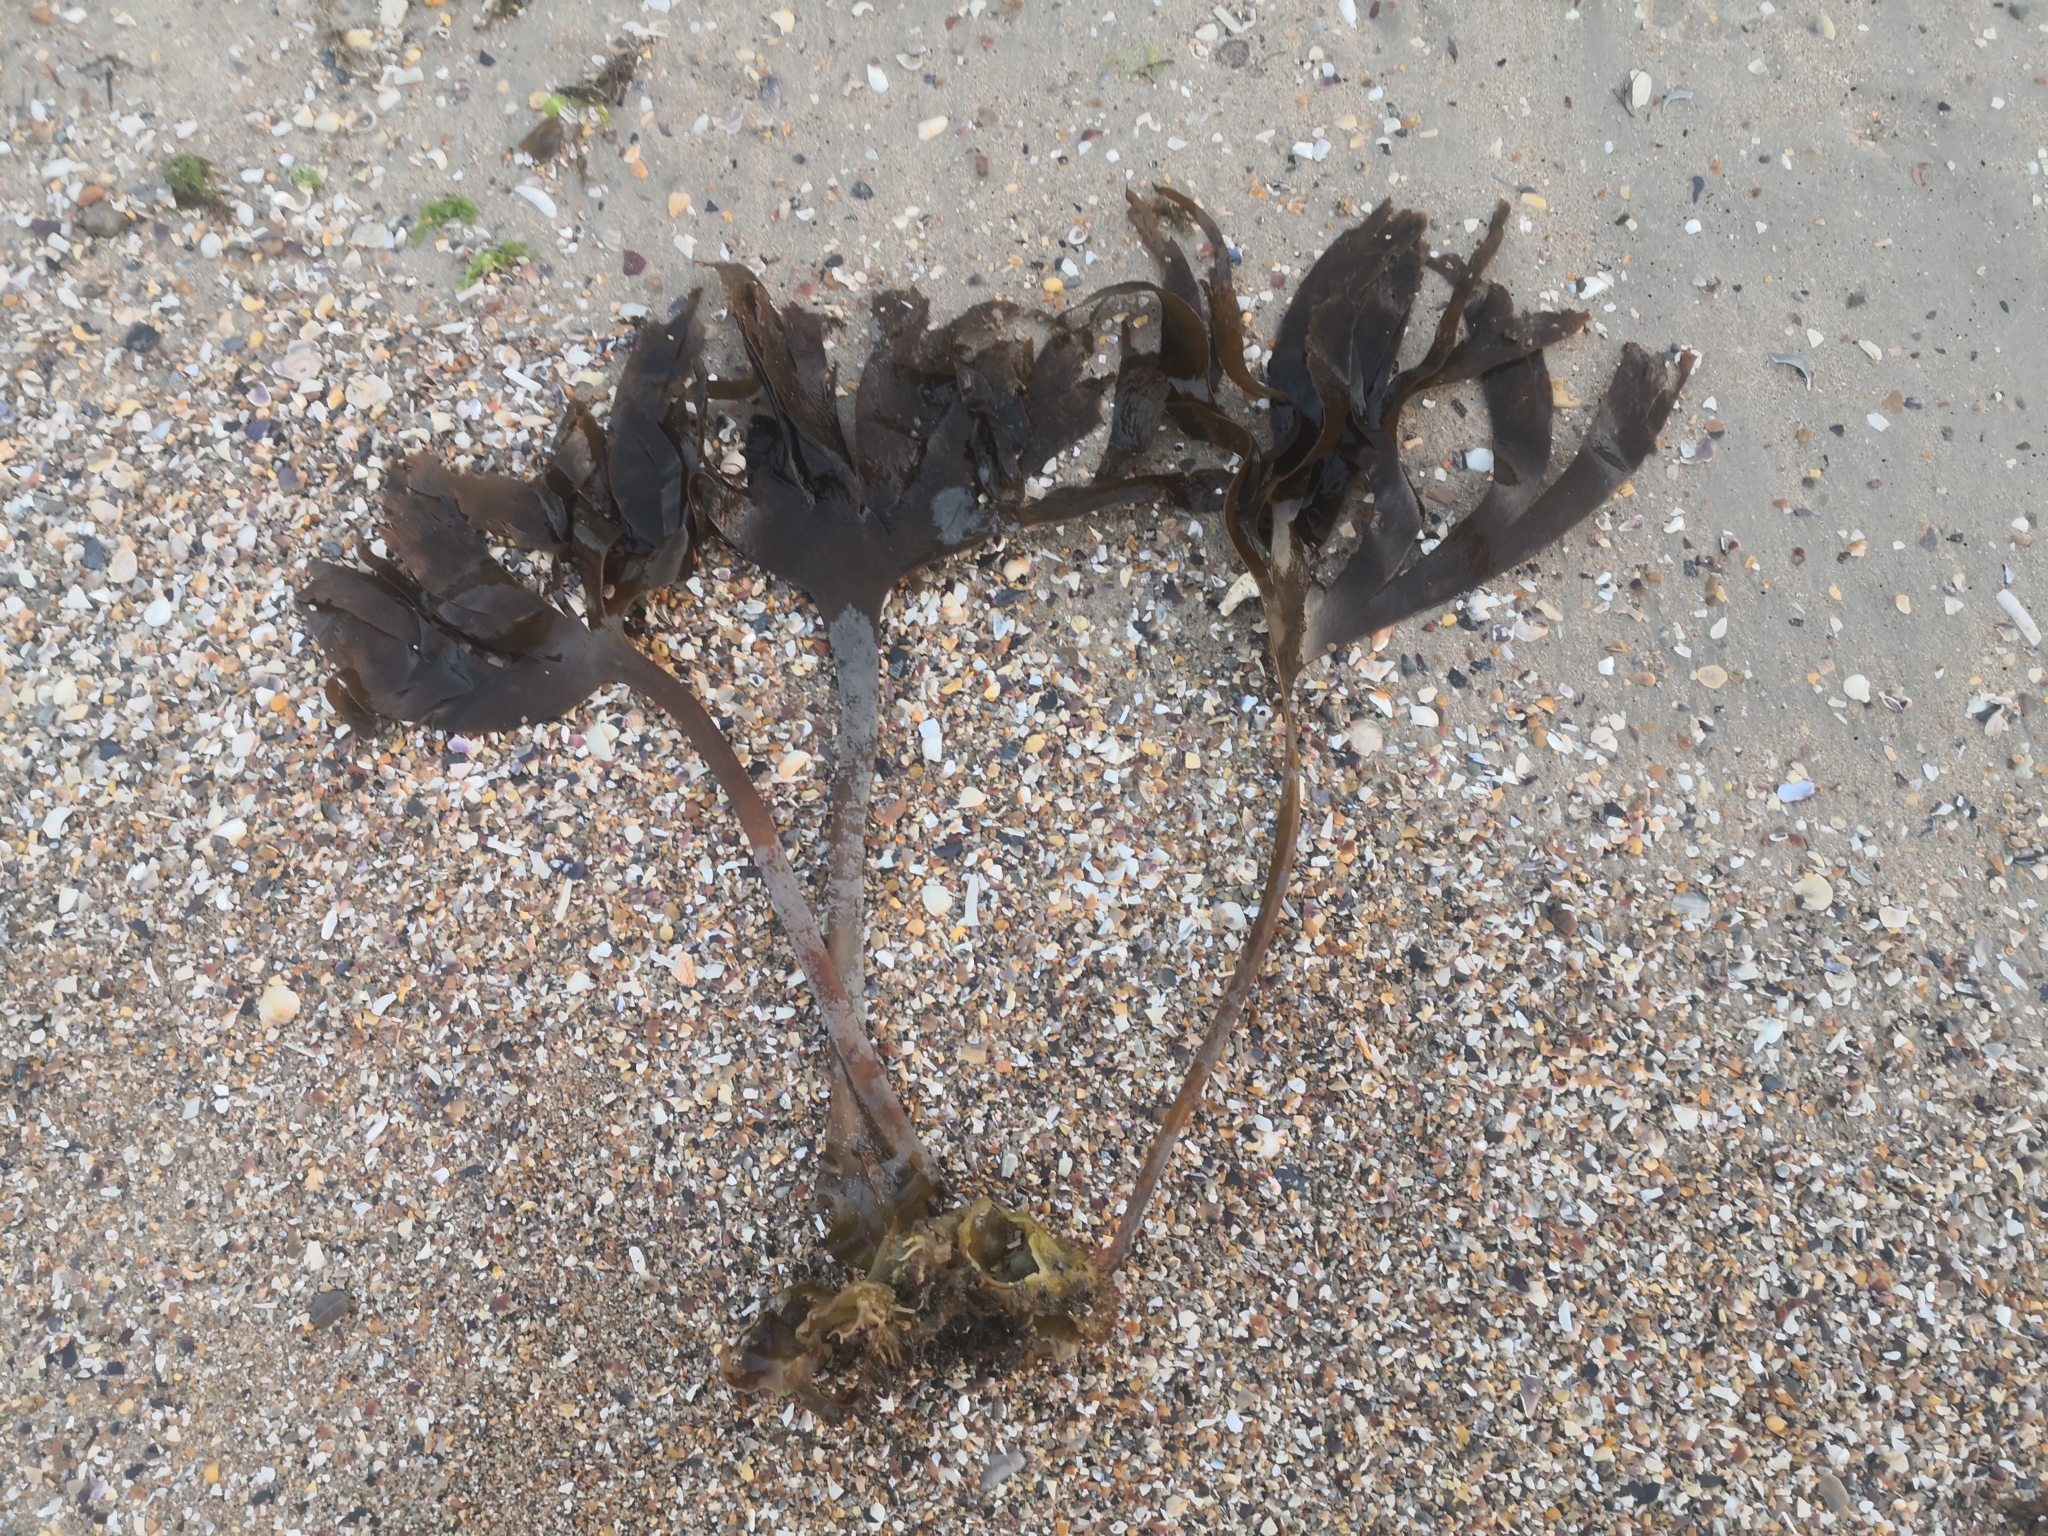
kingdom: Chromista
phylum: Ochrophyta
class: Phaeophyceae
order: Tilopteridales
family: Phyllariaceae
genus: Saccorhiza
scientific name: Saccorhiza polyschides
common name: Furbelows
